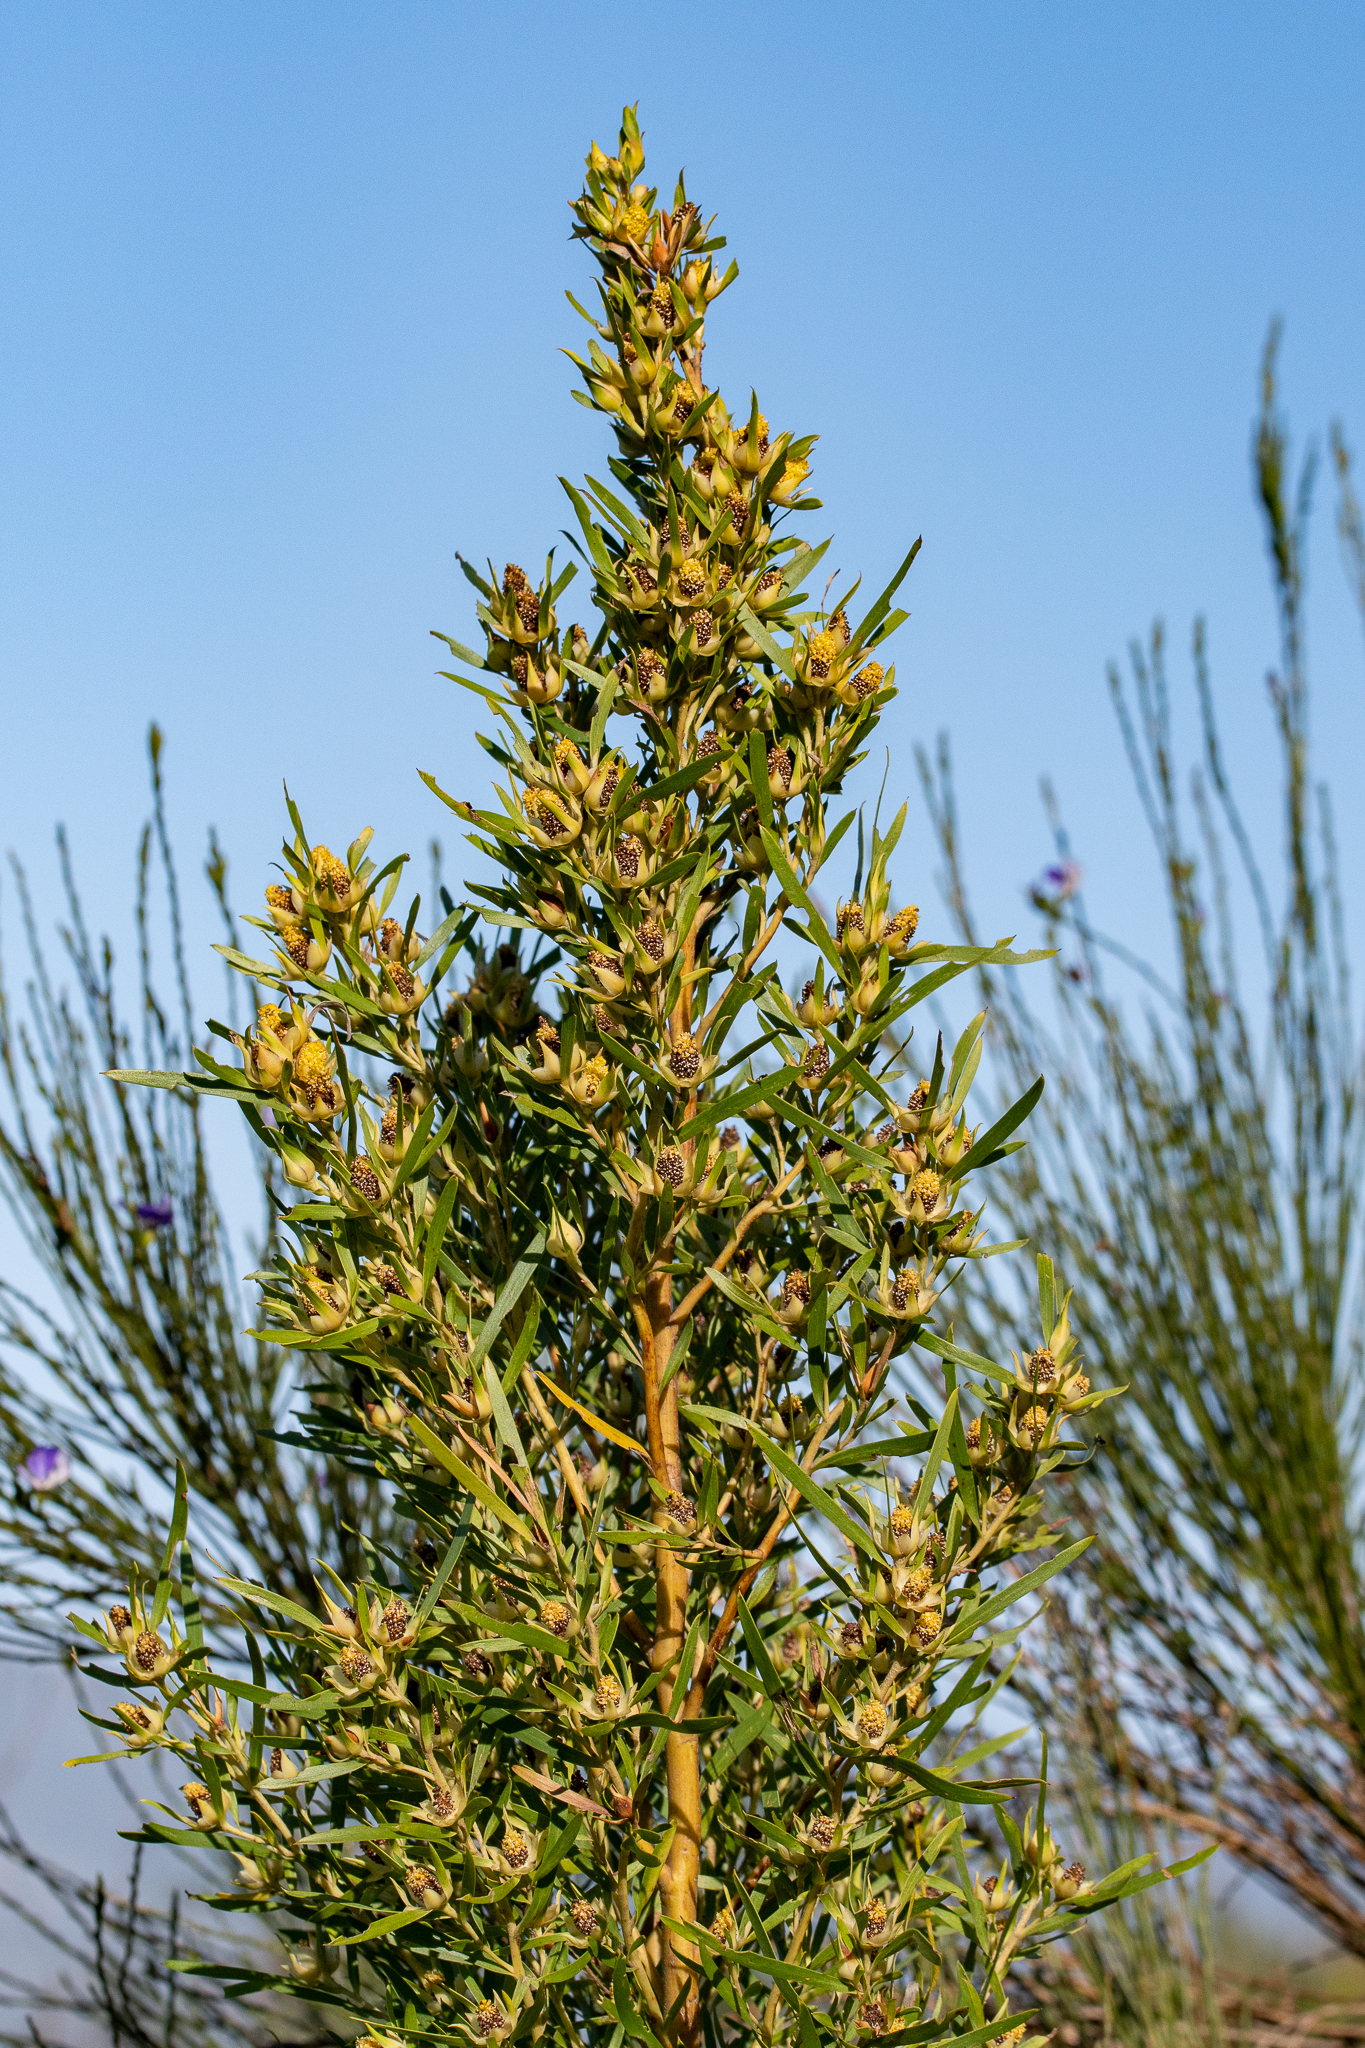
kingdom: Plantae
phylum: Tracheophyta
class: Magnoliopsida
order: Proteales
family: Proteaceae
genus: Leucadendron
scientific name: Leucadendron salicifolium
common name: Common stream conebush
